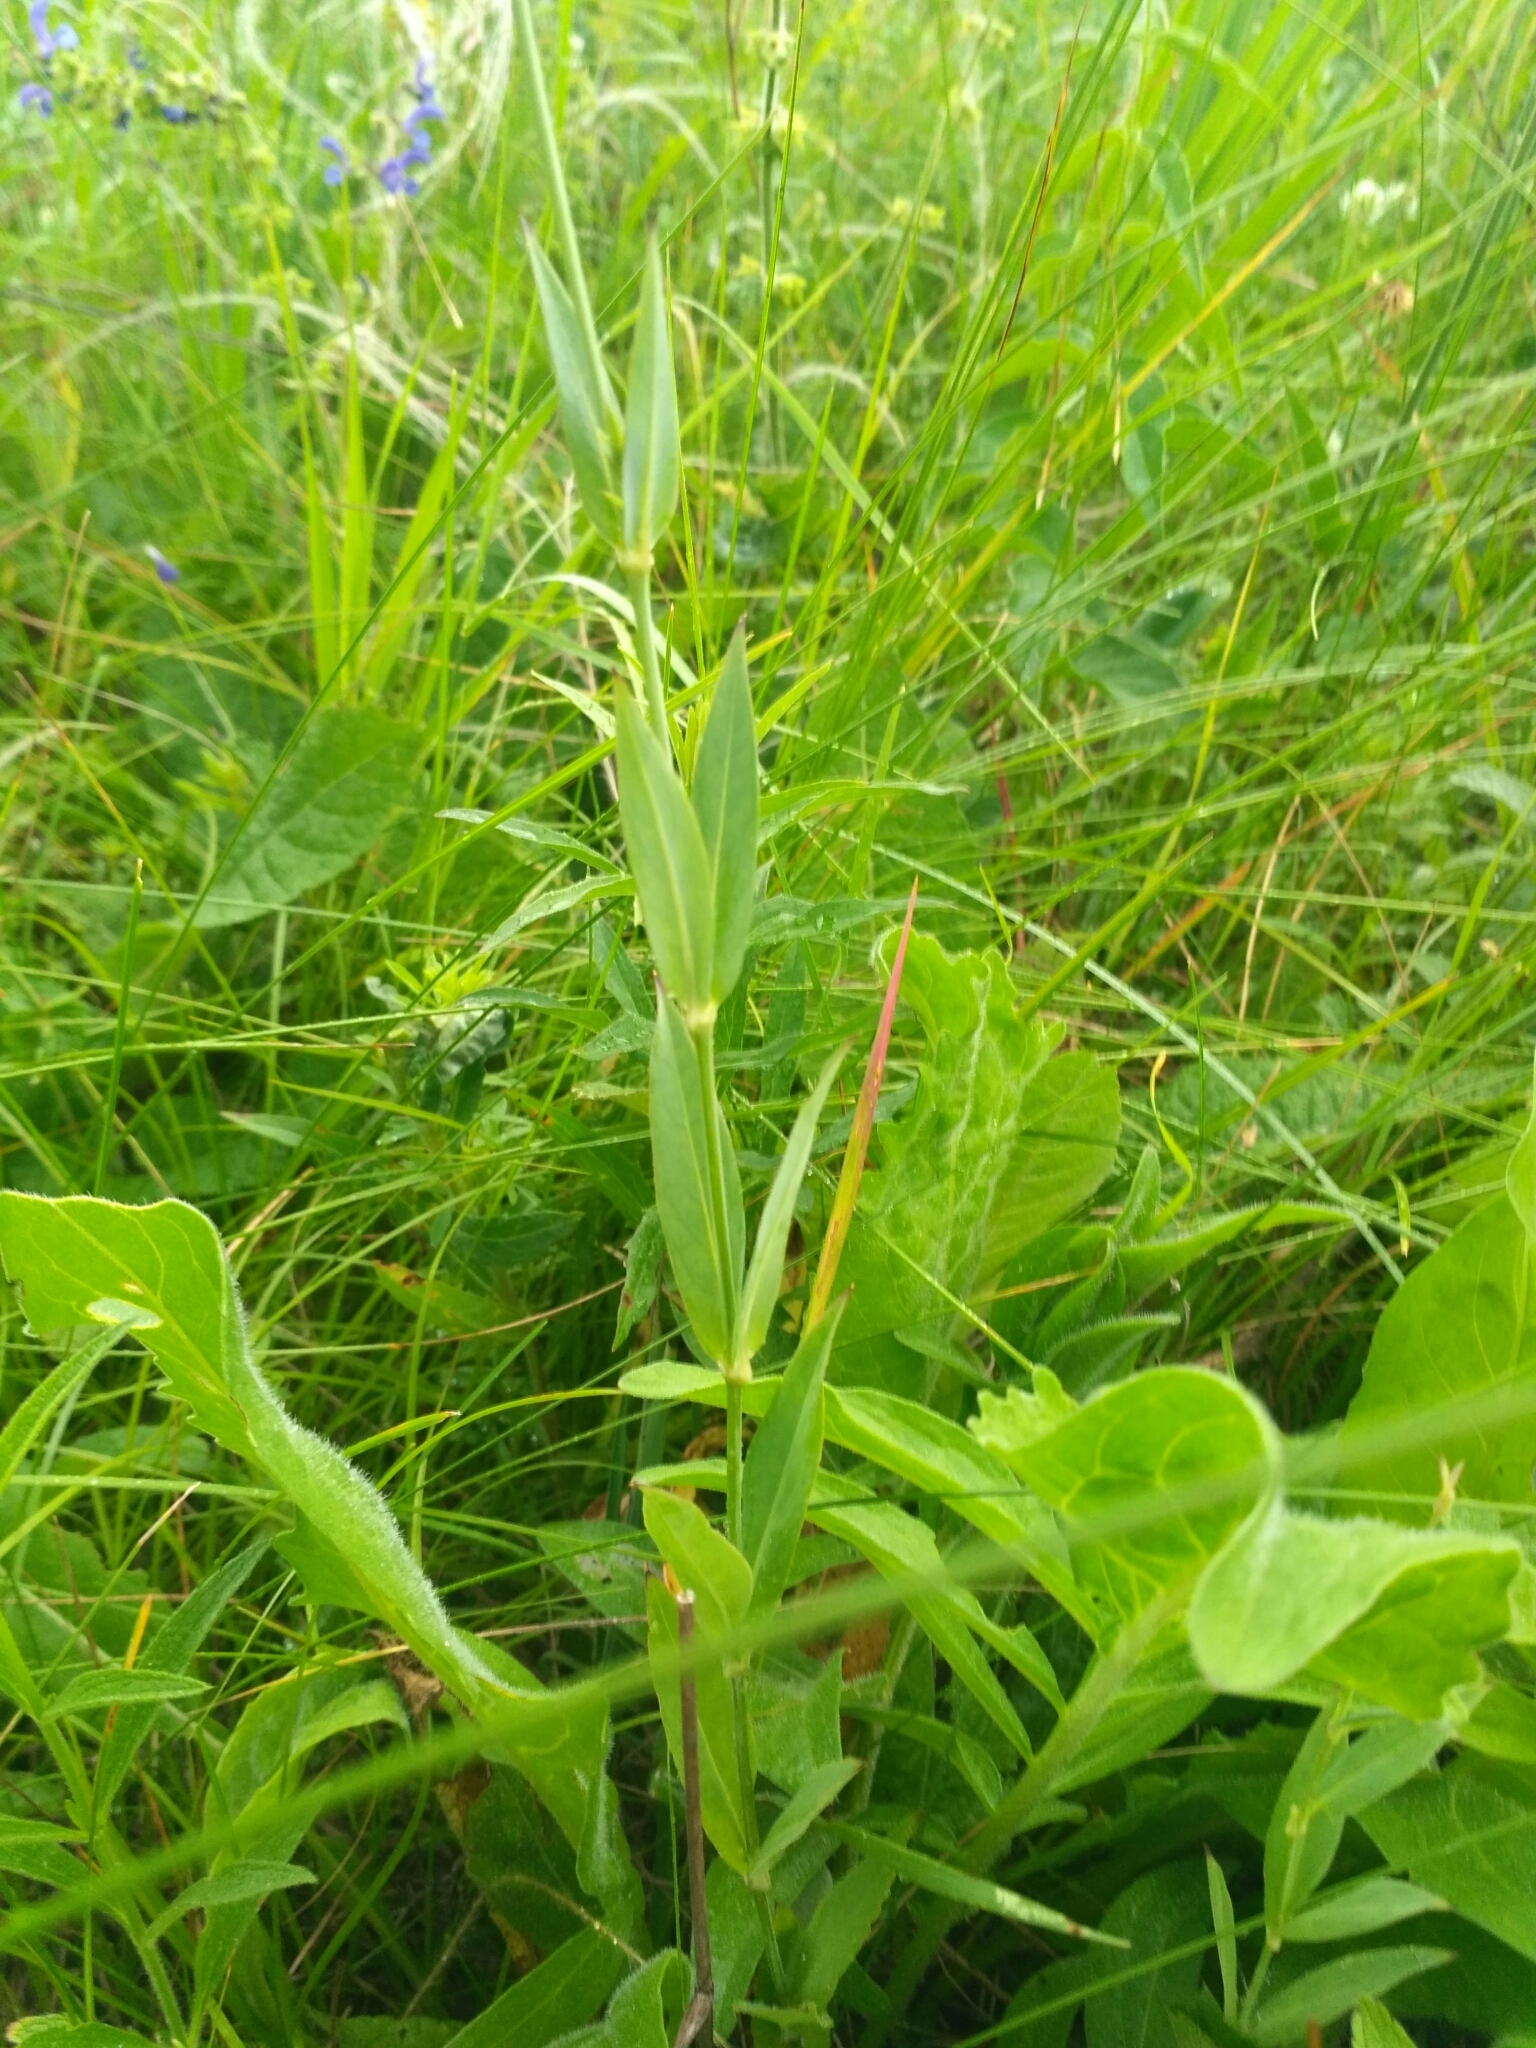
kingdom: Plantae
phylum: Tracheophyta
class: Magnoliopsida
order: Caryophyllales
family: Caryophyllaceae
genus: Silene
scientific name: Silene vulgaris
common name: Bladder campion
